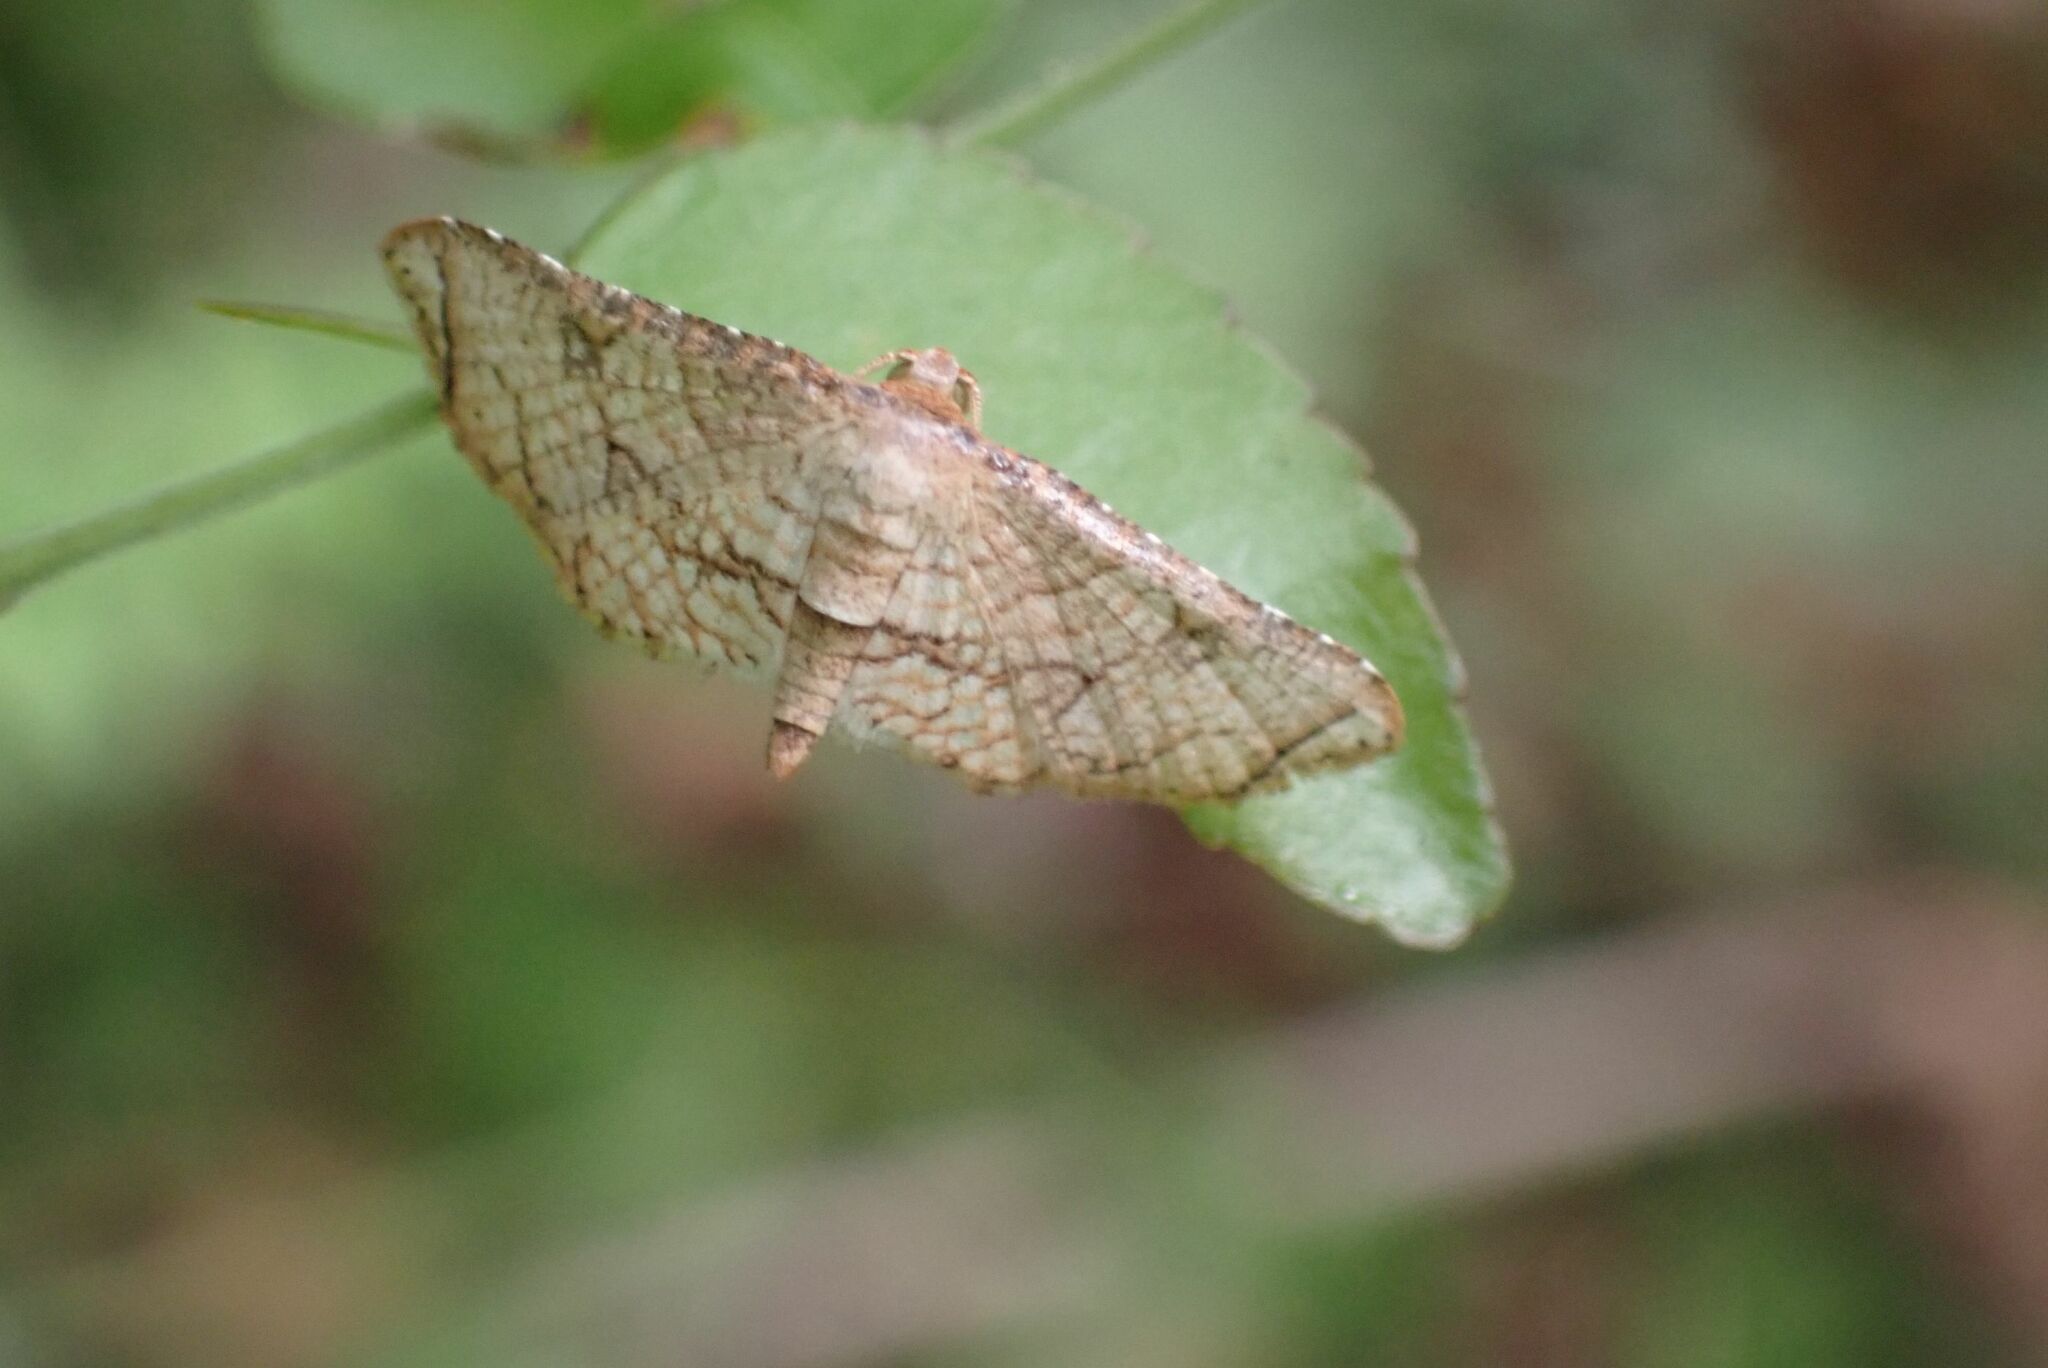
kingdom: Animalia
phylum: Arthropoda
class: Insecta
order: Lepidoptera
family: Thyrididae
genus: Hypolamprus
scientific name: Hypolamprus gangaba
